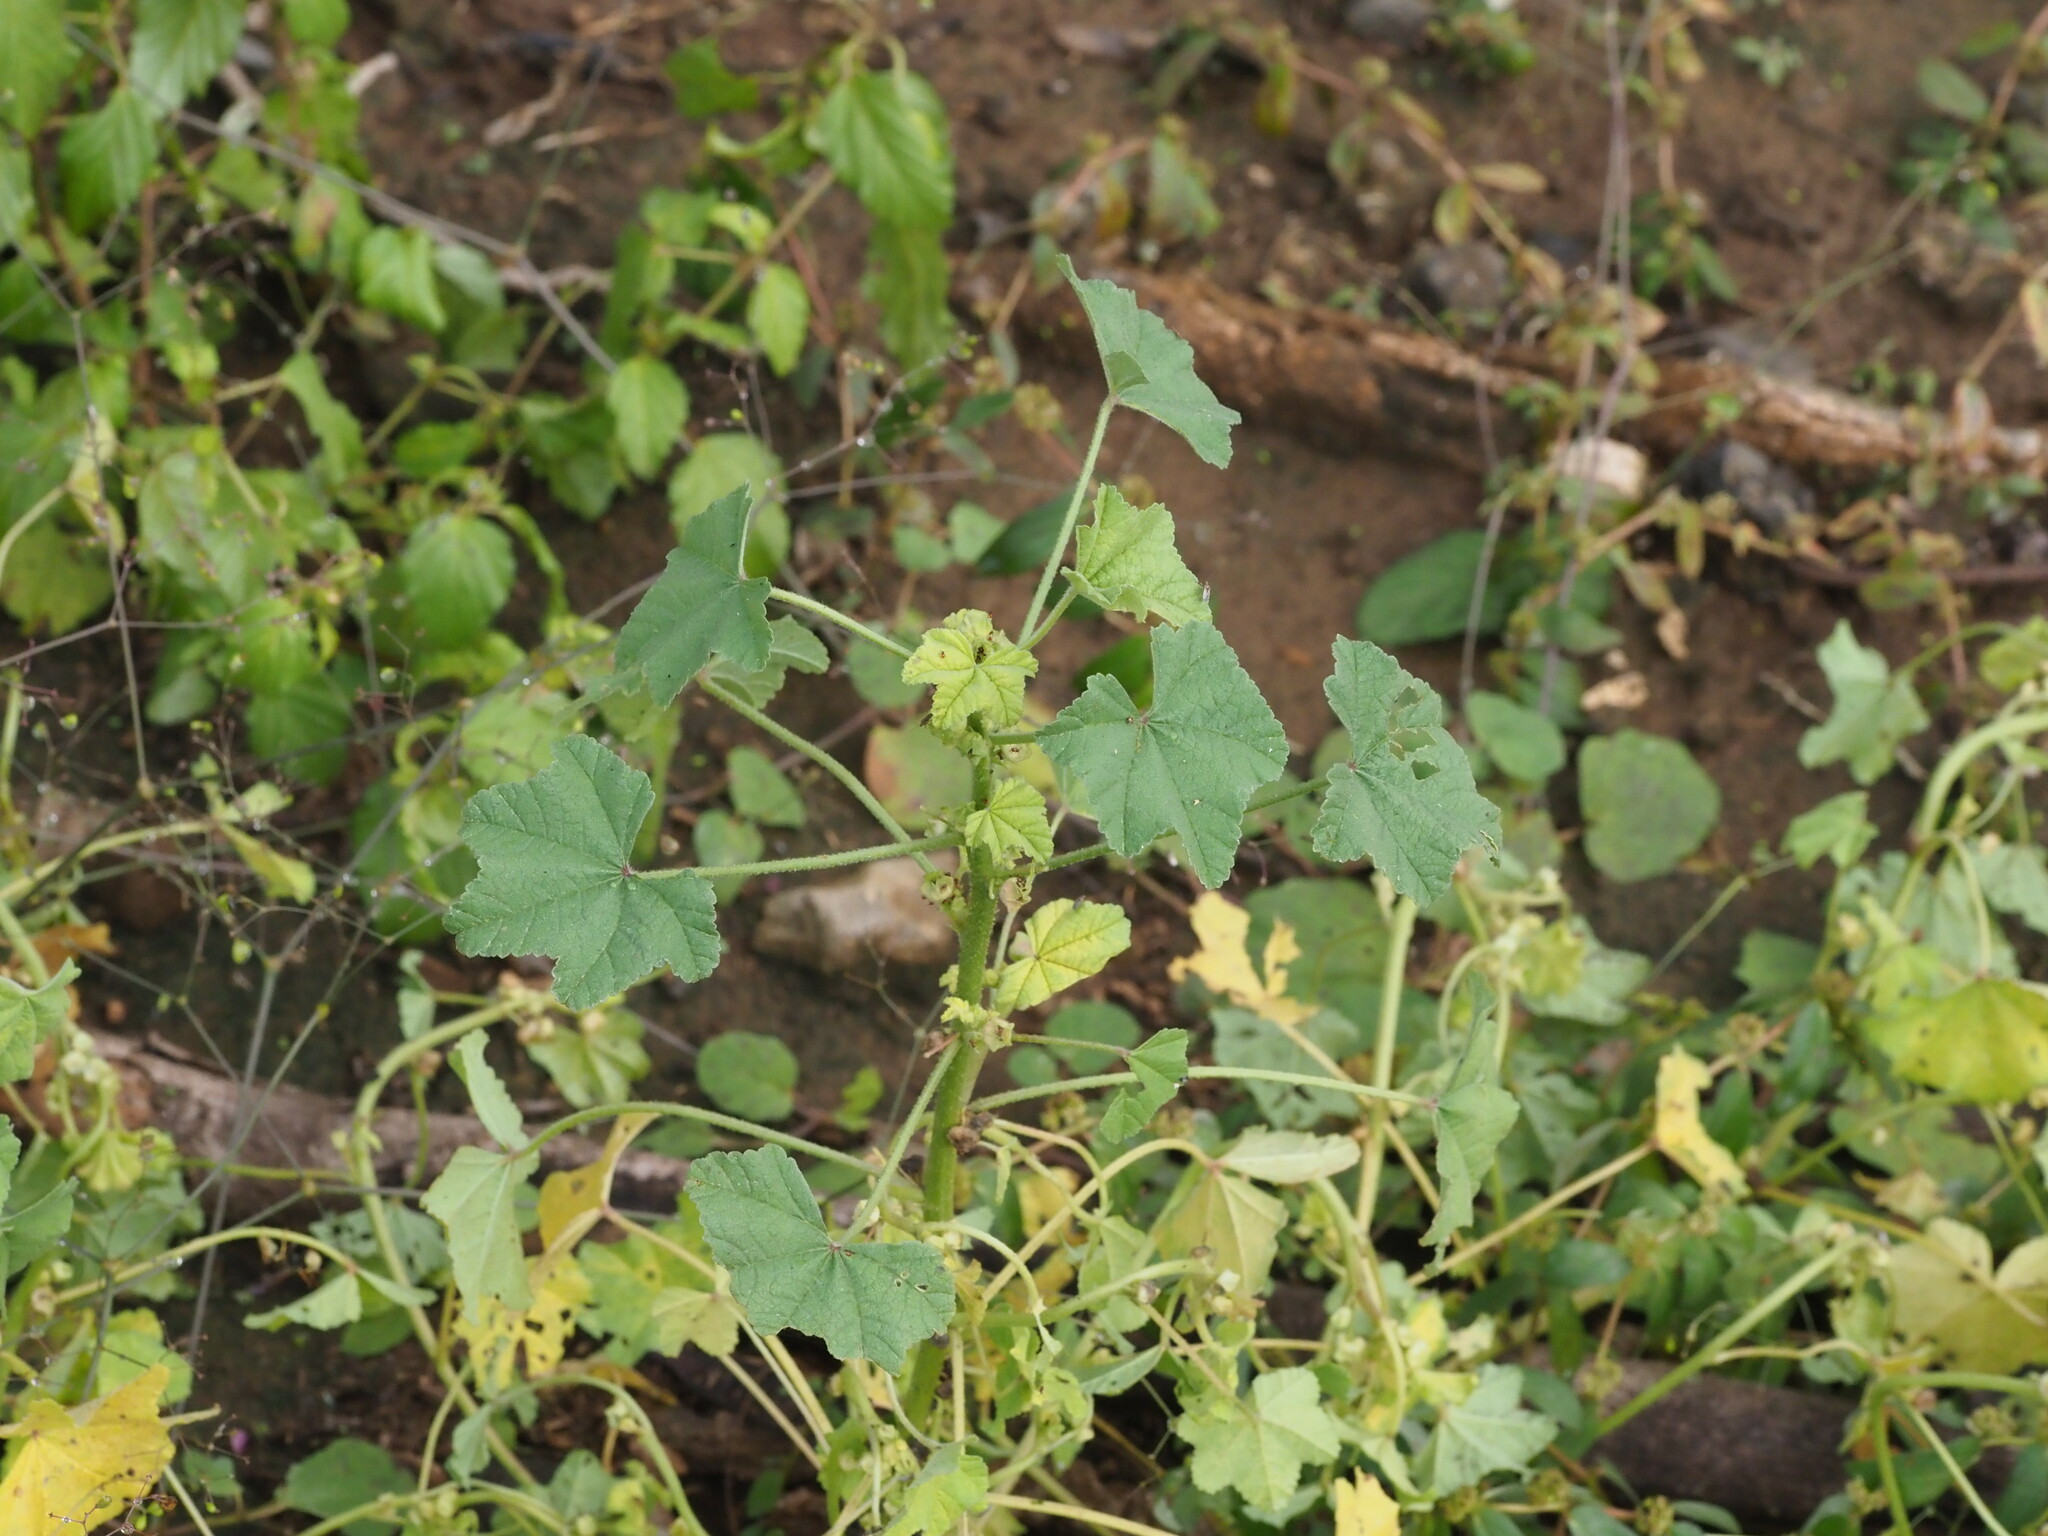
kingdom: Plantae
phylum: Tracheophyta
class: Magnoliopsida
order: Malvales
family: Malvaceae
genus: Malva
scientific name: Malva parviflora
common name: Least mallow
